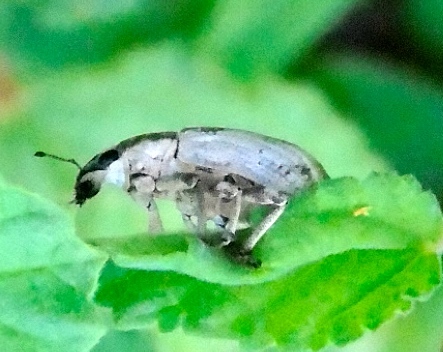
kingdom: Animalia
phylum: Arthropoda
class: Insecta
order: Coleoptera
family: Curculionidae
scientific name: Curculionidae
